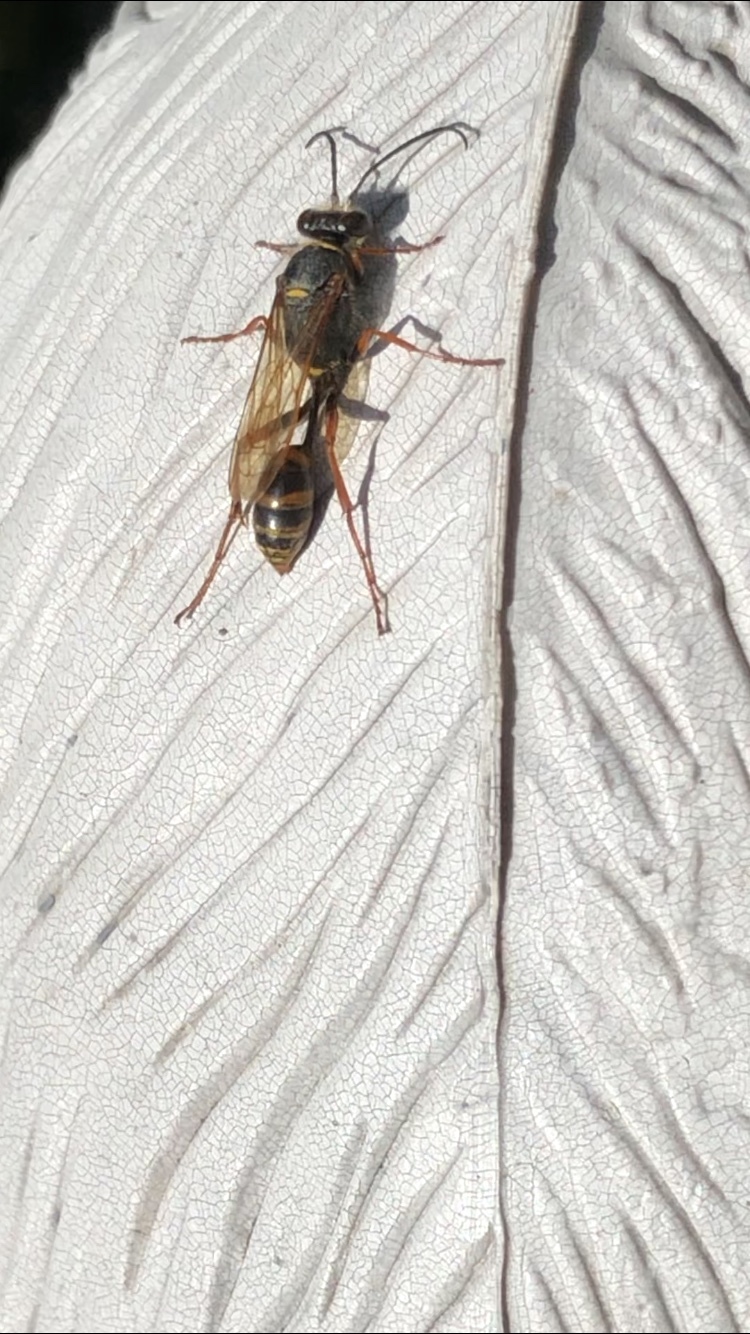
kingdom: Animalia
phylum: Arthropoda
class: Insecta
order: Hymenoptera
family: Sphecidae
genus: Sceliphron
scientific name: Sceliphron curvatum
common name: Pèlopèe
